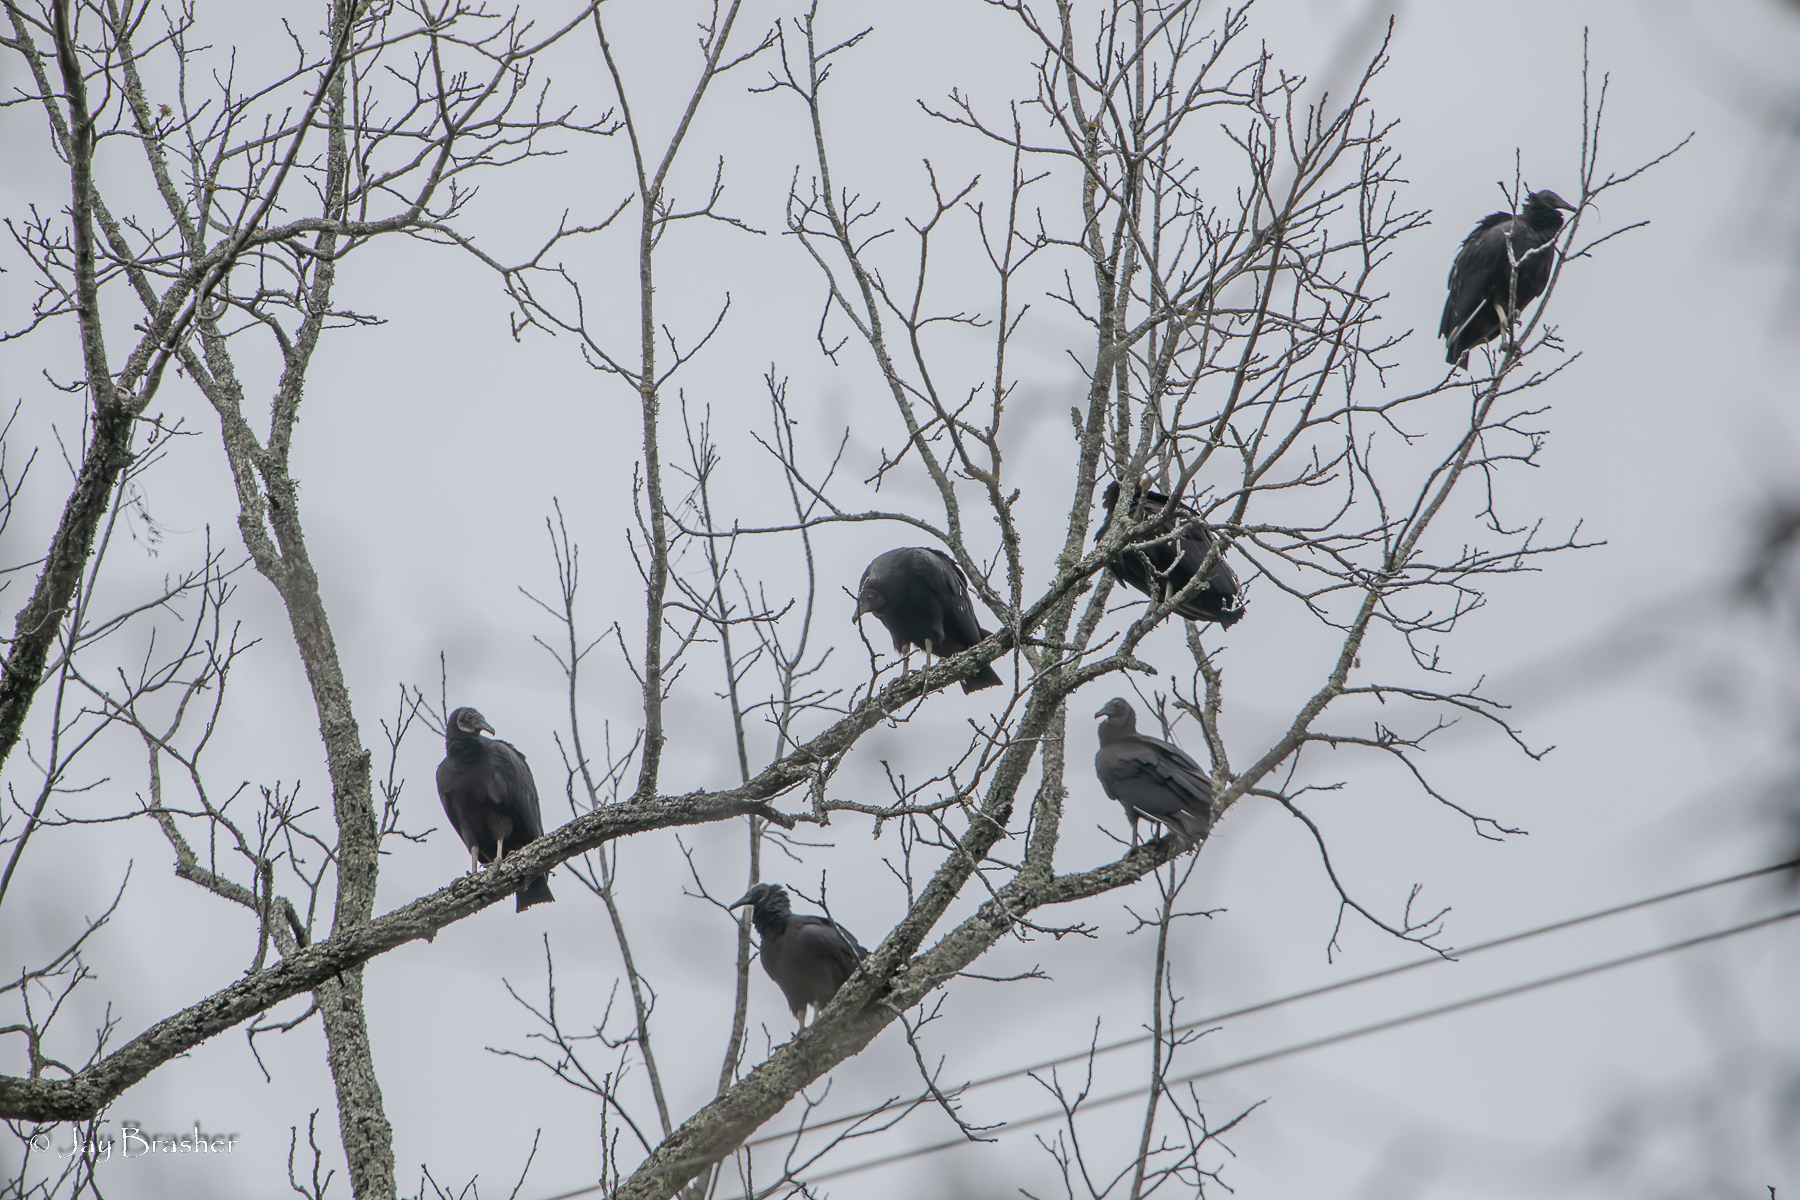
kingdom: Animalia
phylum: Chordata
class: Aves
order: Accipitriformes
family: Cathartidae
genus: Coragyps
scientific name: Coragyps atratus
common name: Black vulture
